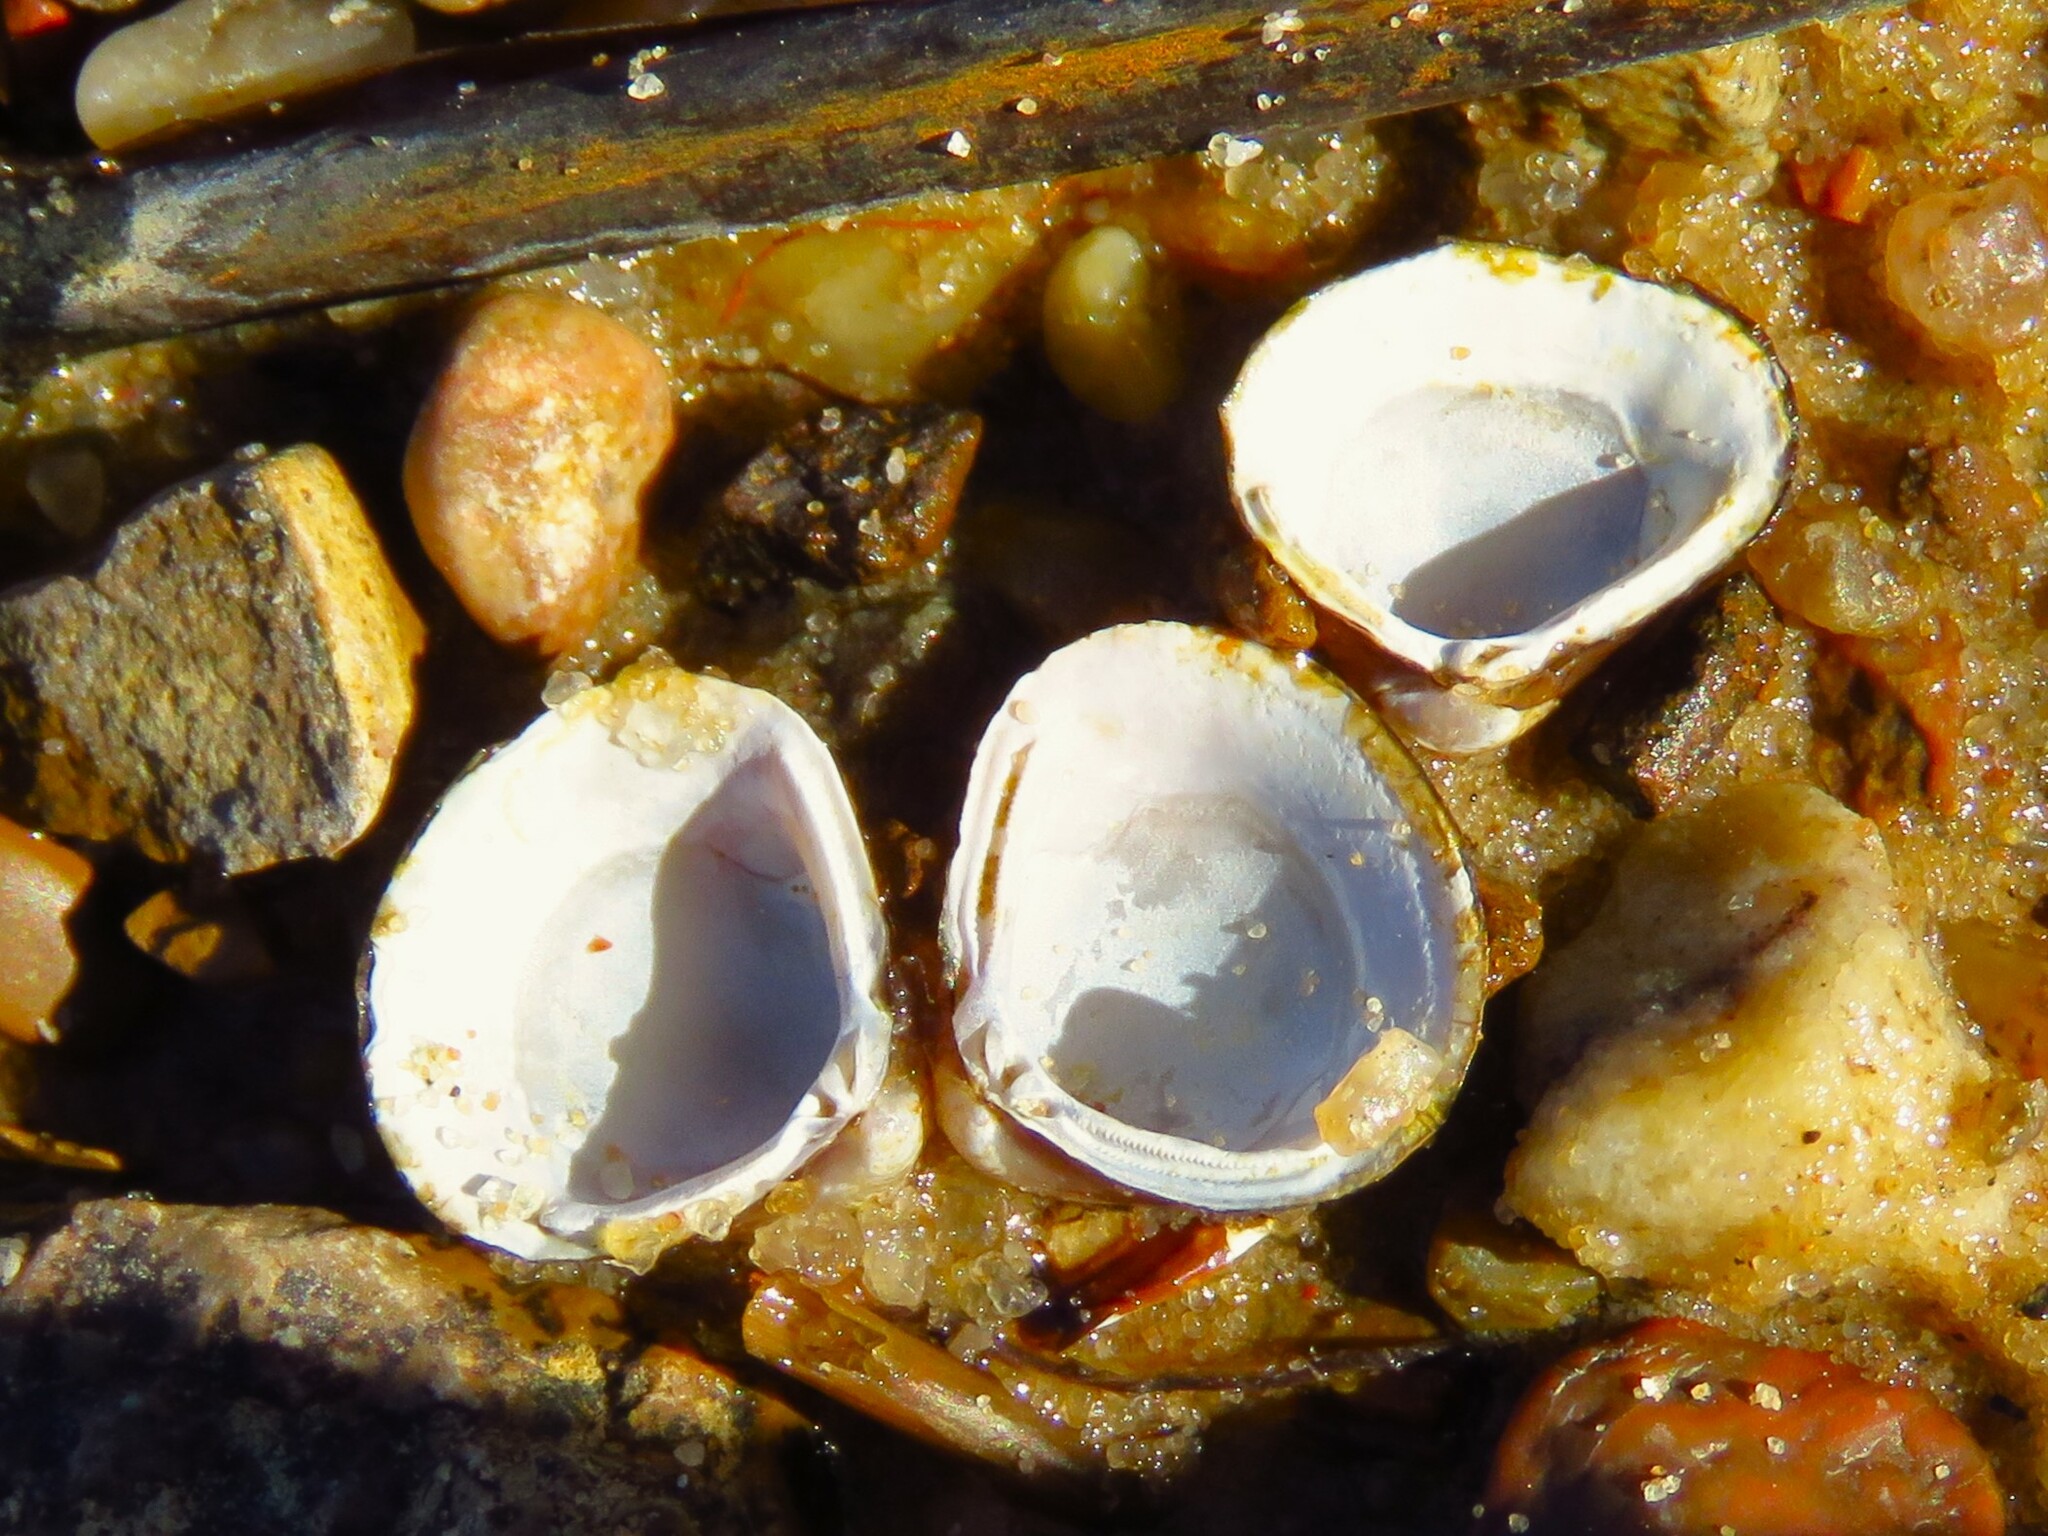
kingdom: Animalia
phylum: Mollusca
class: Bivalvia
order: Venerida
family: Cyrenidae
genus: Corbicula
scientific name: Corbicula fluminea
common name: Asian clam
